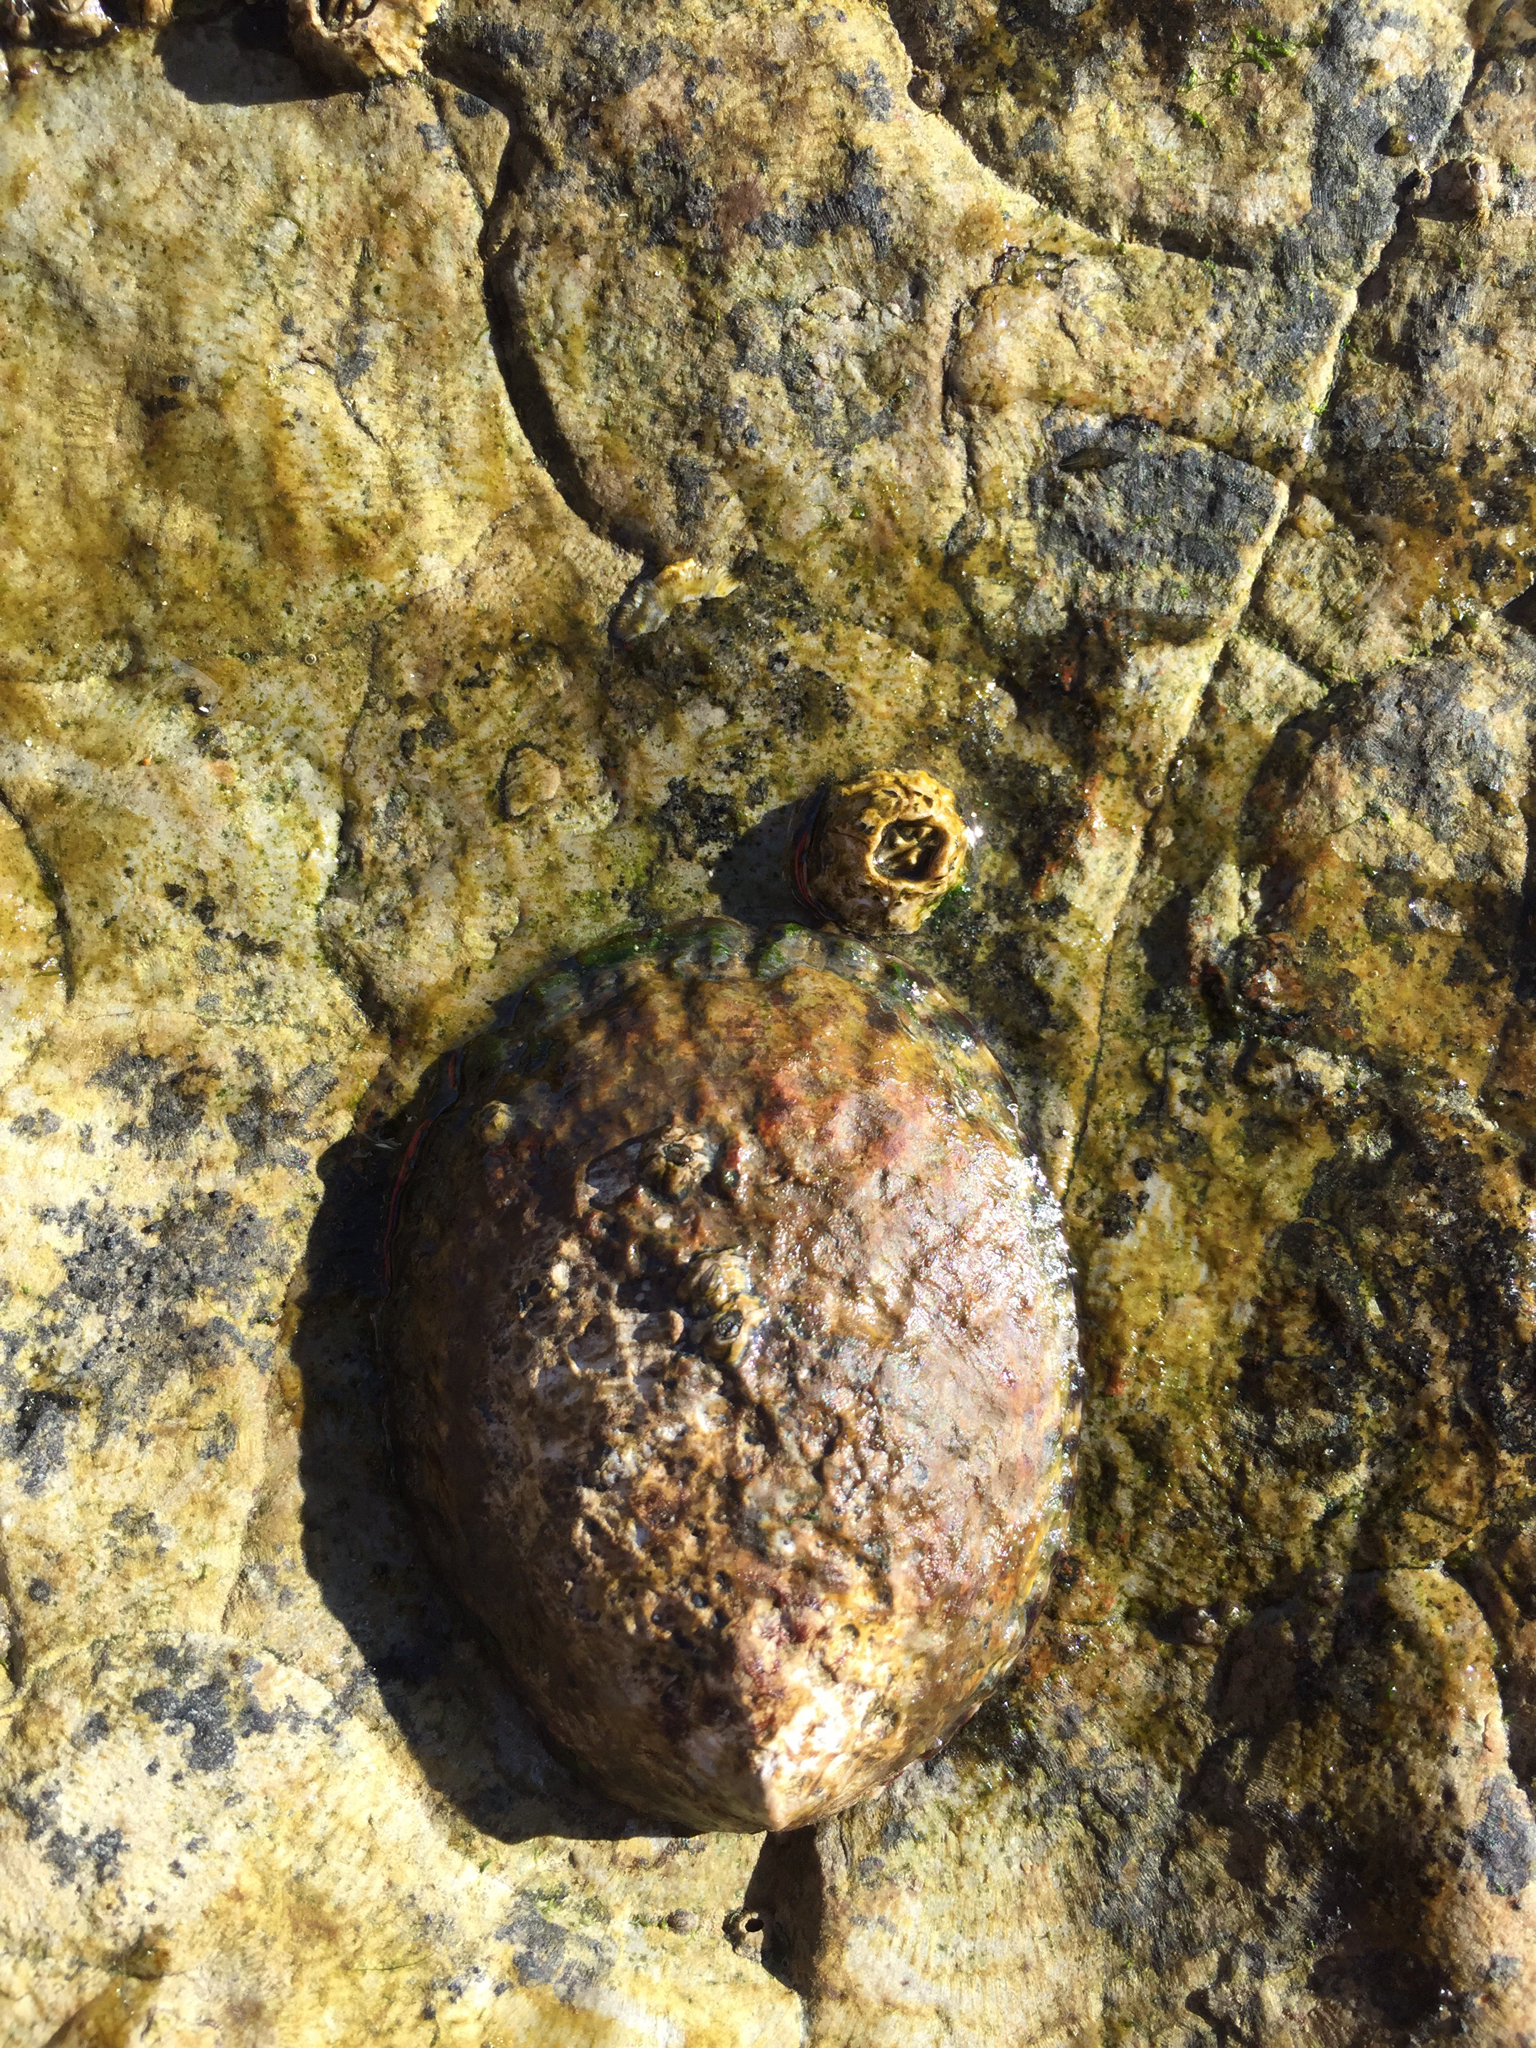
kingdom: Animalia
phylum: Mollusca
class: Gastropoda
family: Lottiidae
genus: Lottia
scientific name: Lottia gigantea
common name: Owl limpet
